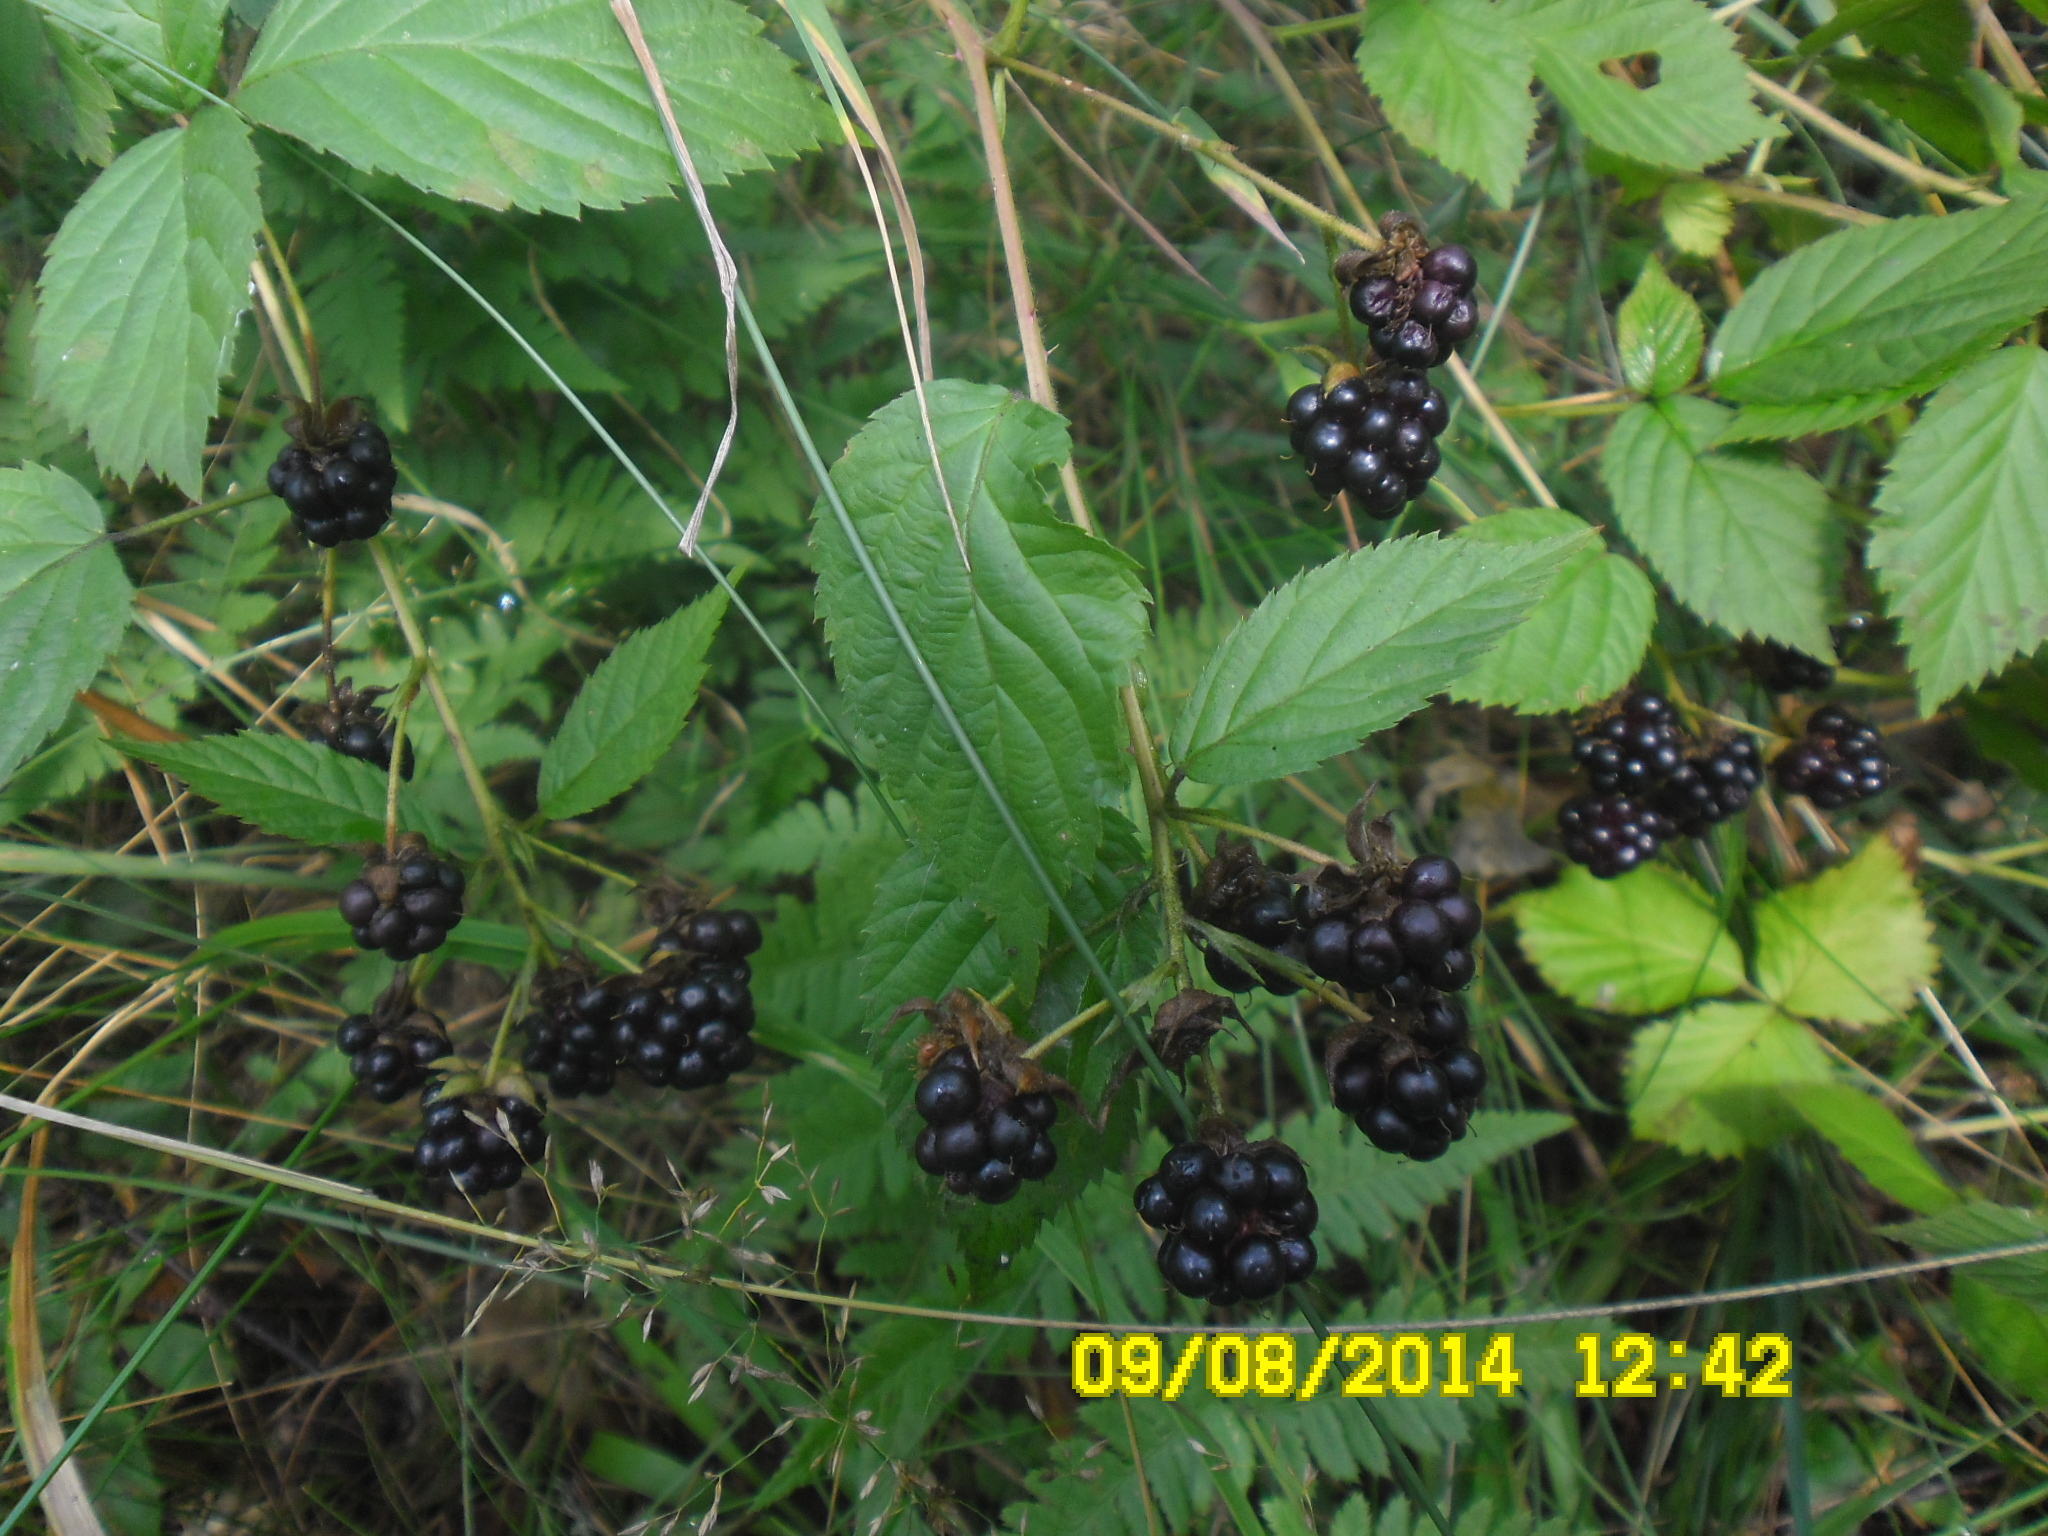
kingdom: Plantae
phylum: Tracheophyta
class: Magnoliopsida
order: Rosales
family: Rosaceae
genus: Rubus
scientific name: Rubus polonicus
